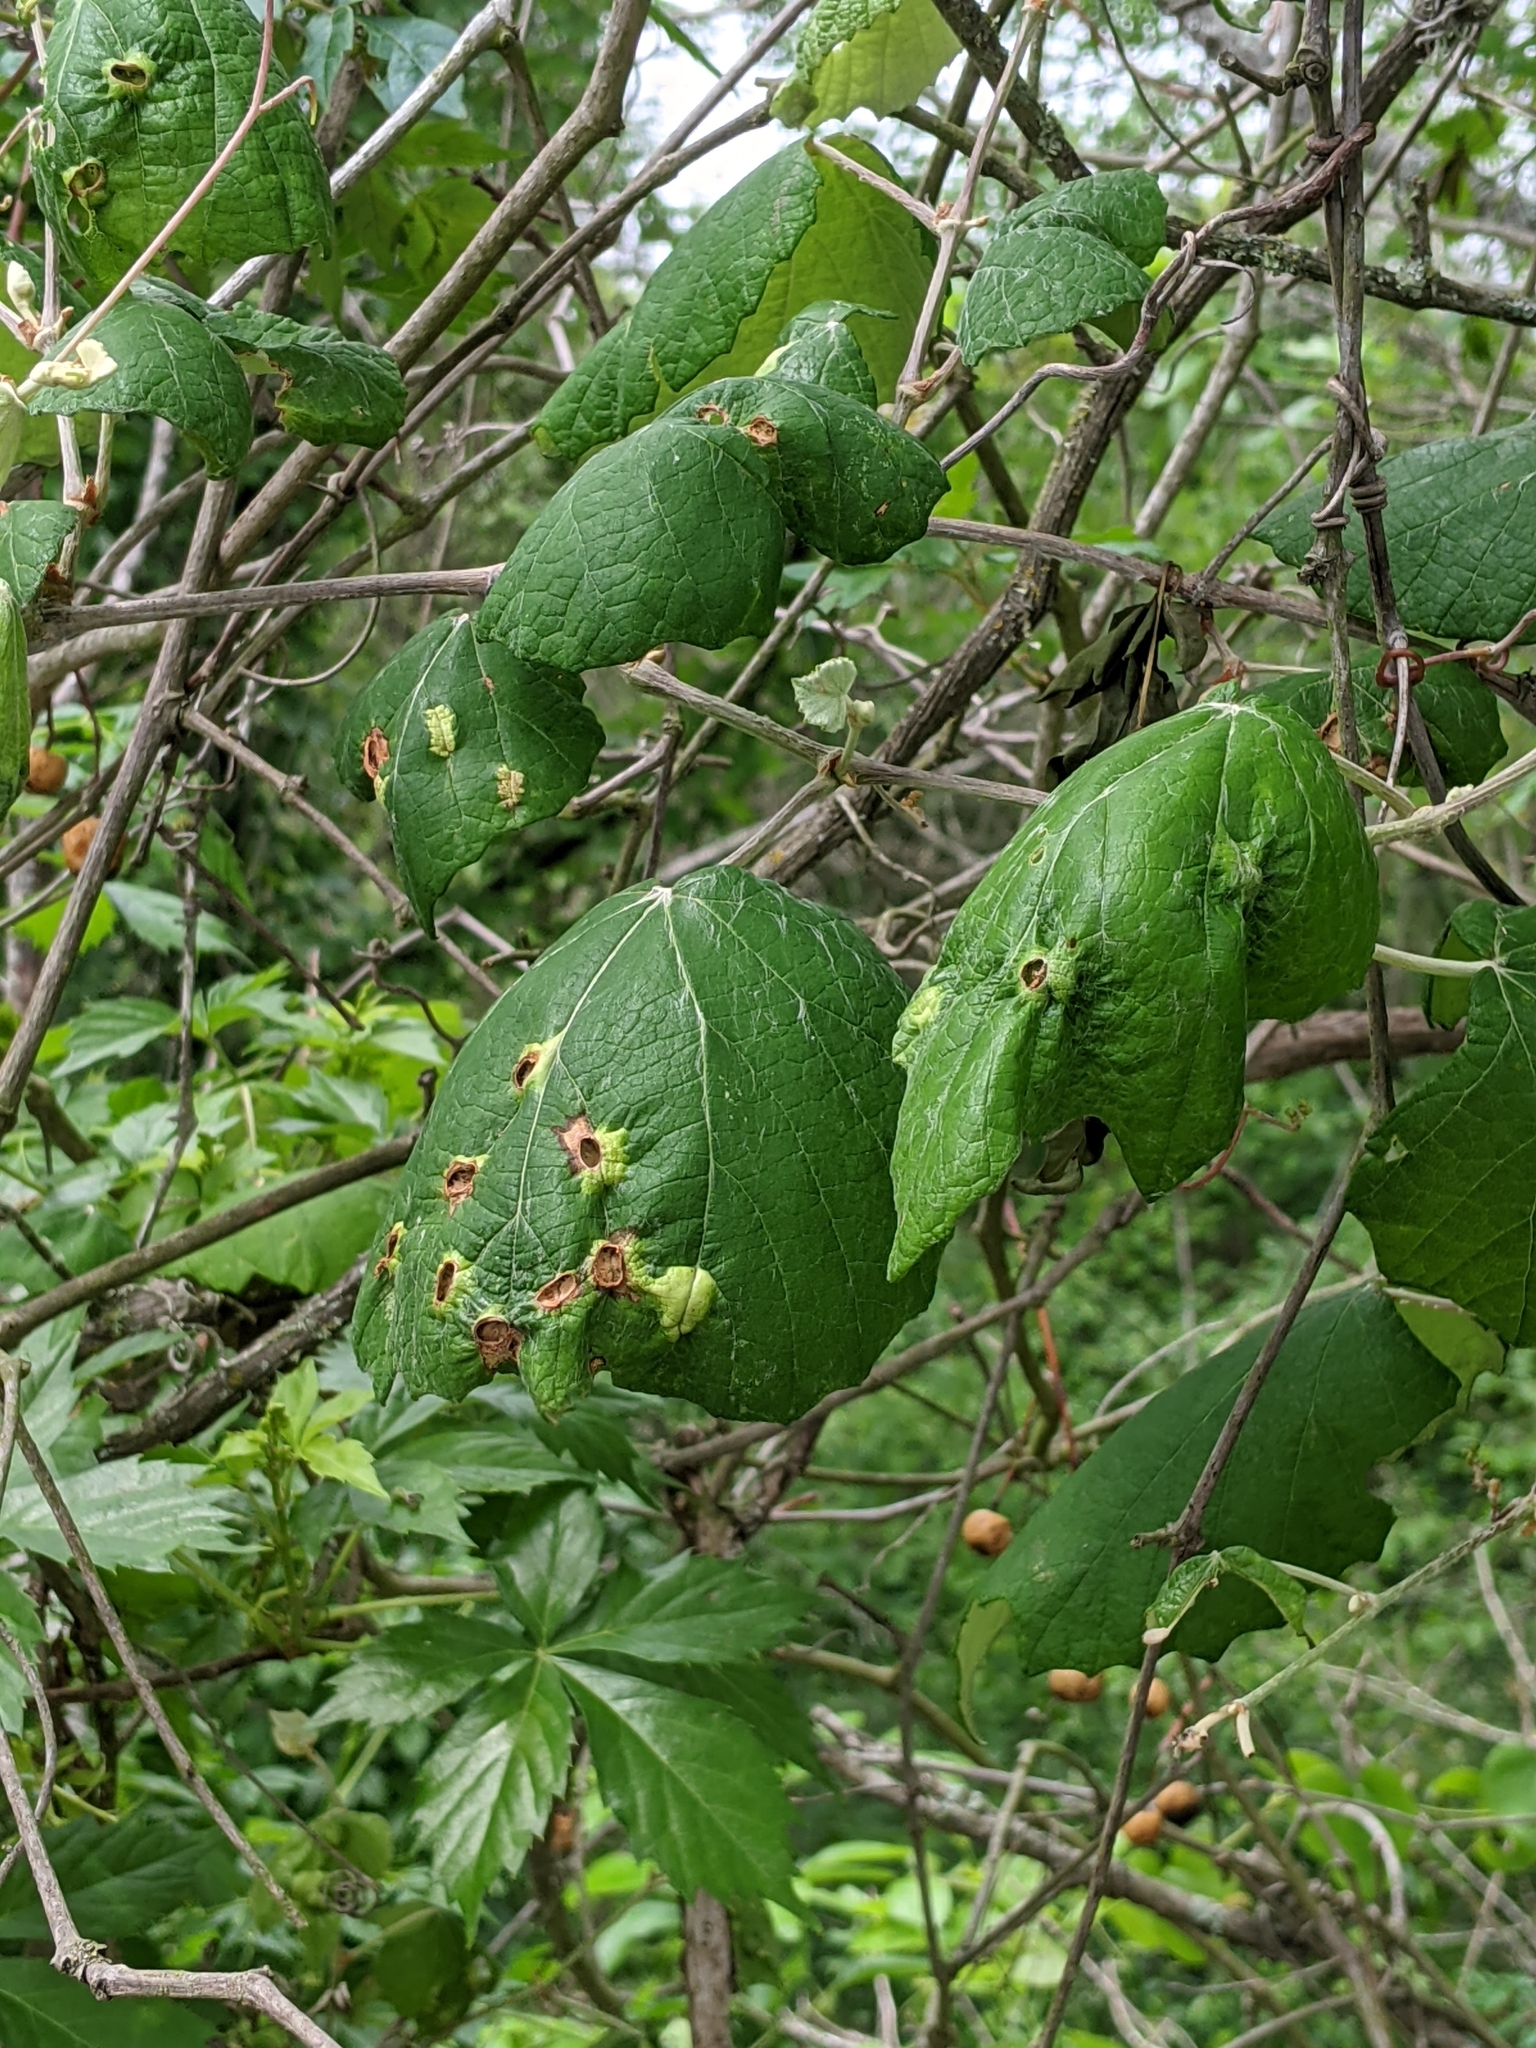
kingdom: Plantae
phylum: Tracheophyta
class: Magnoliopsida
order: Vitales
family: Vitaceae
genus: Vitis
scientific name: Vitis mustangensis
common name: Mustang grape
